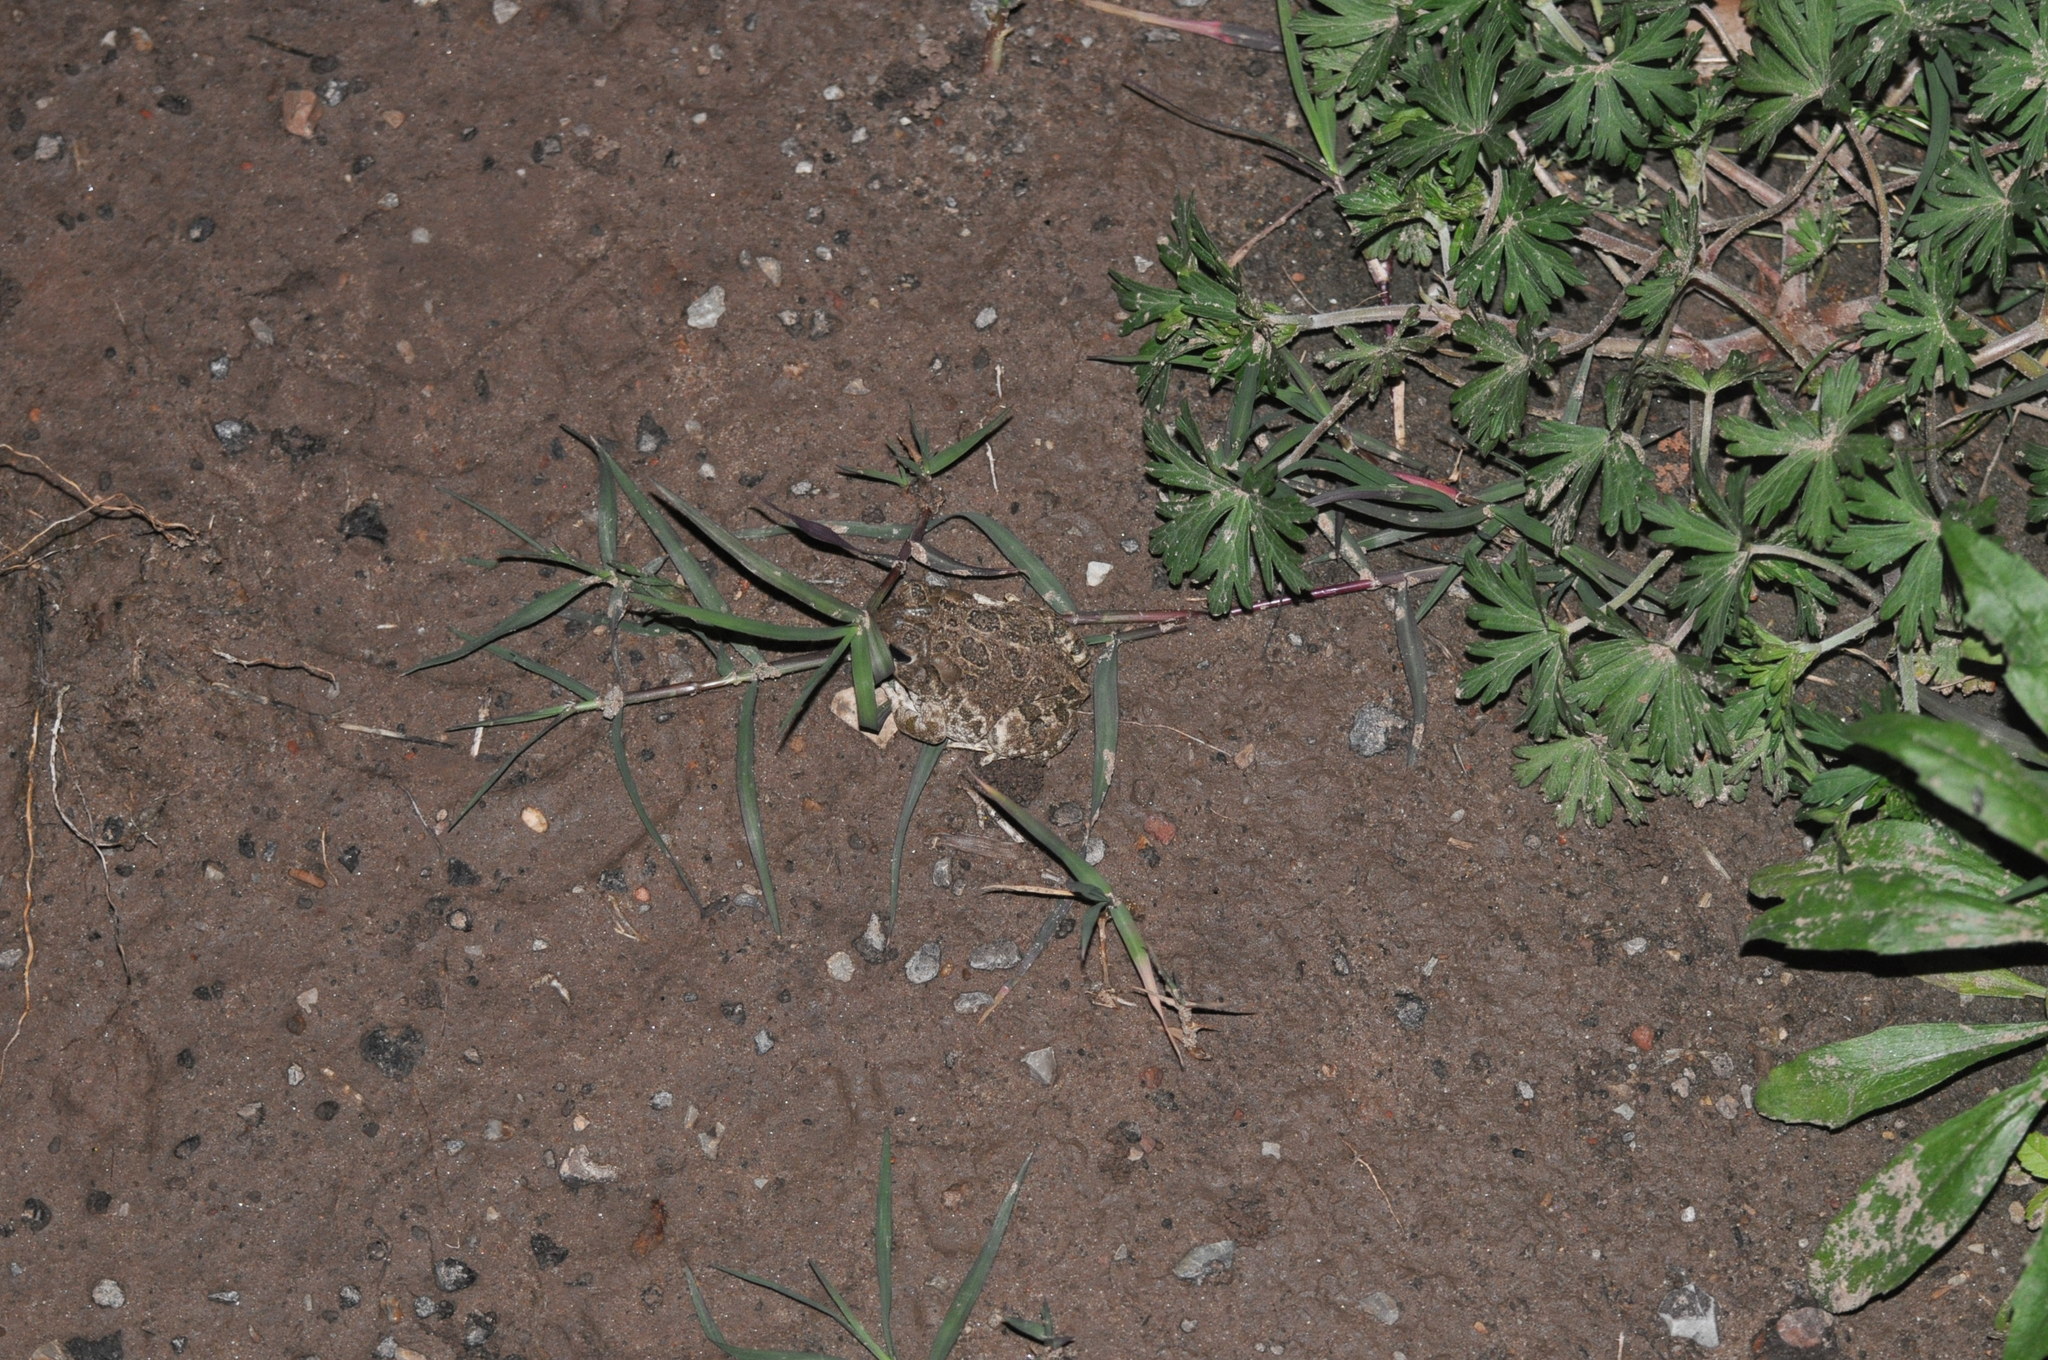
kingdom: Animalia
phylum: Chordata
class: Amphibia
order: Anura
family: Bufonidae
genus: Anaxyrus
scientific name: Anaxyrus cognatus
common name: Great plains toad
